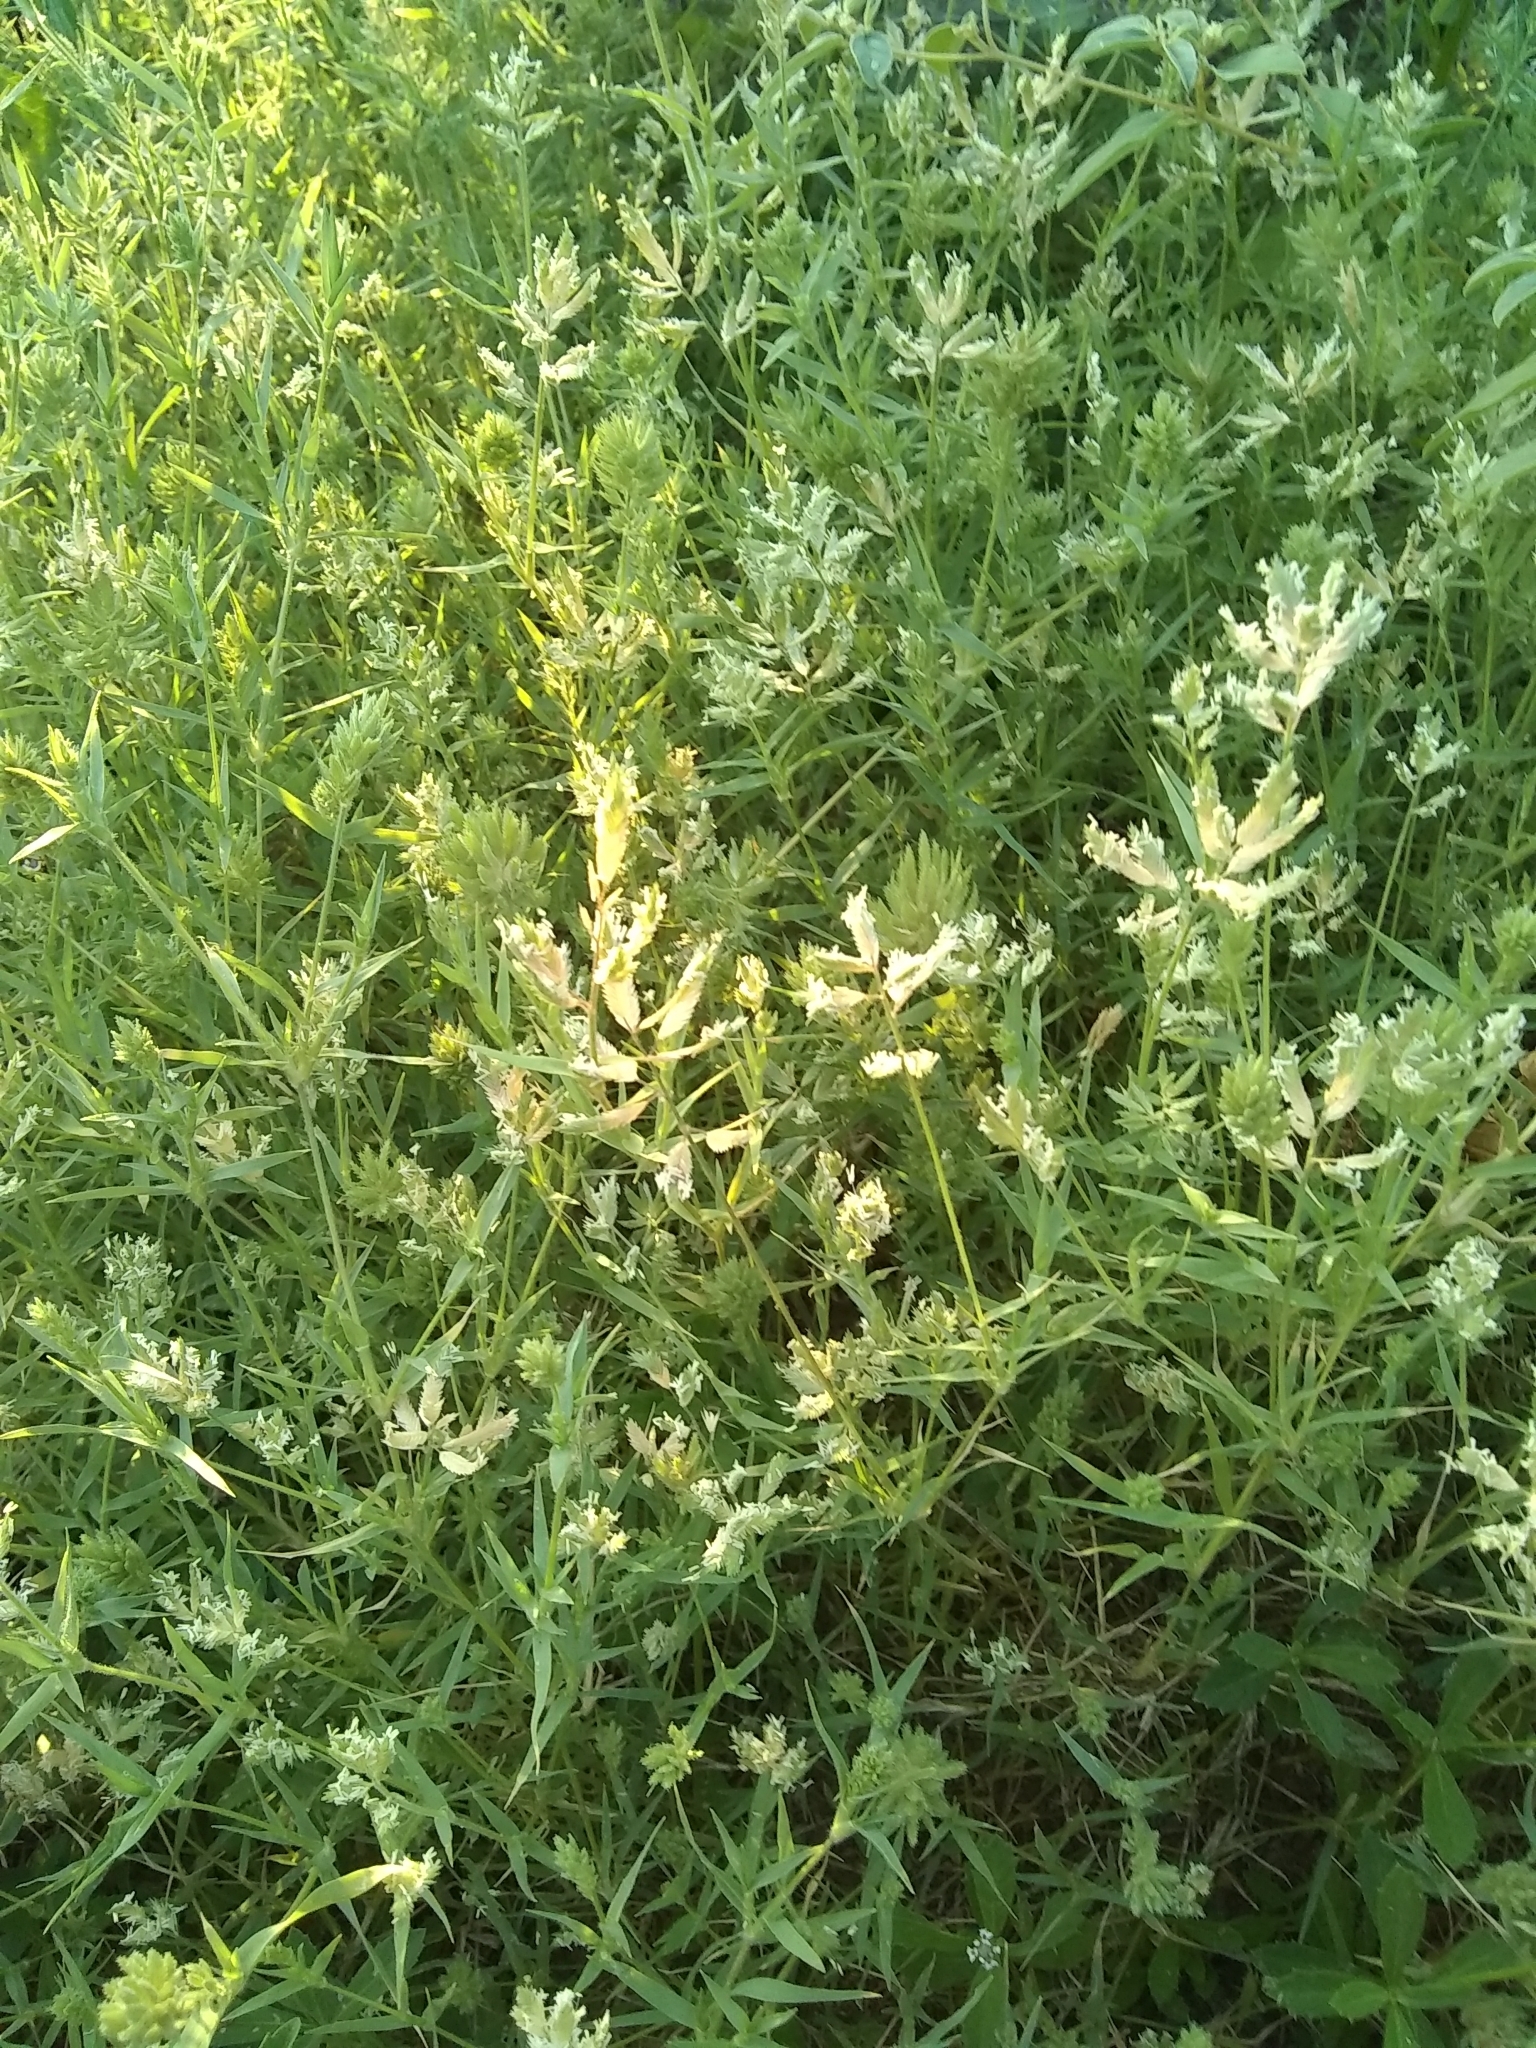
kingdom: Plantae
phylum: Tracheophyta
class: Liliopsida
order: Poales
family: Poaceae
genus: Eragrostis
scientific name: Eragrostis reptans
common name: Creeping love grass
